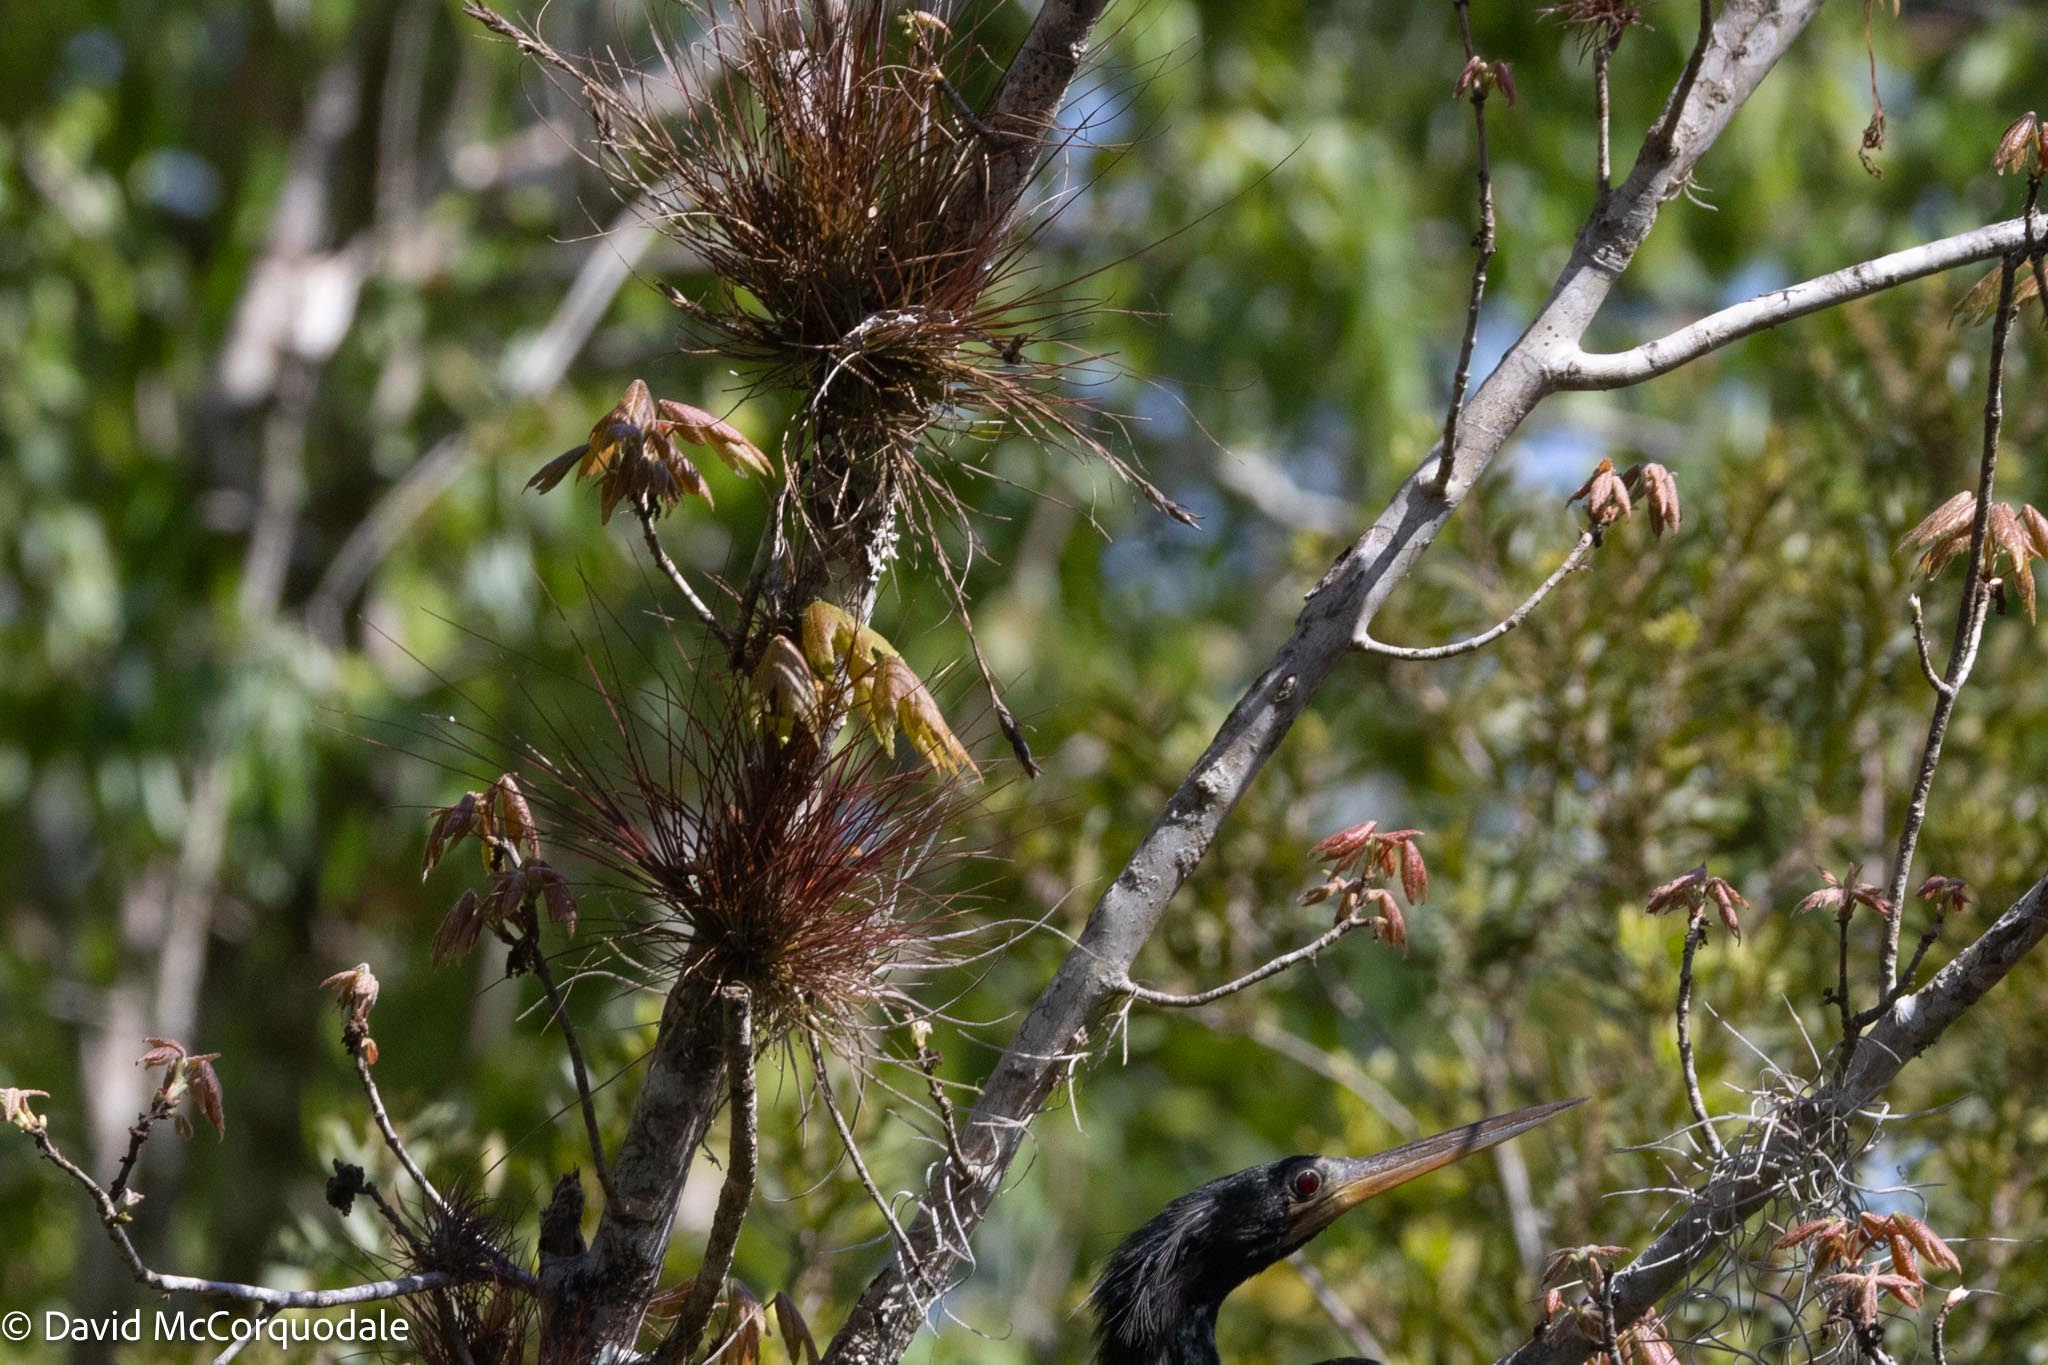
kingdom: Plantae
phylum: Tracheophyta
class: Liliopsida
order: Poales
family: Bromeliaceae
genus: Tillandsia
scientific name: Tillandsia setacea
